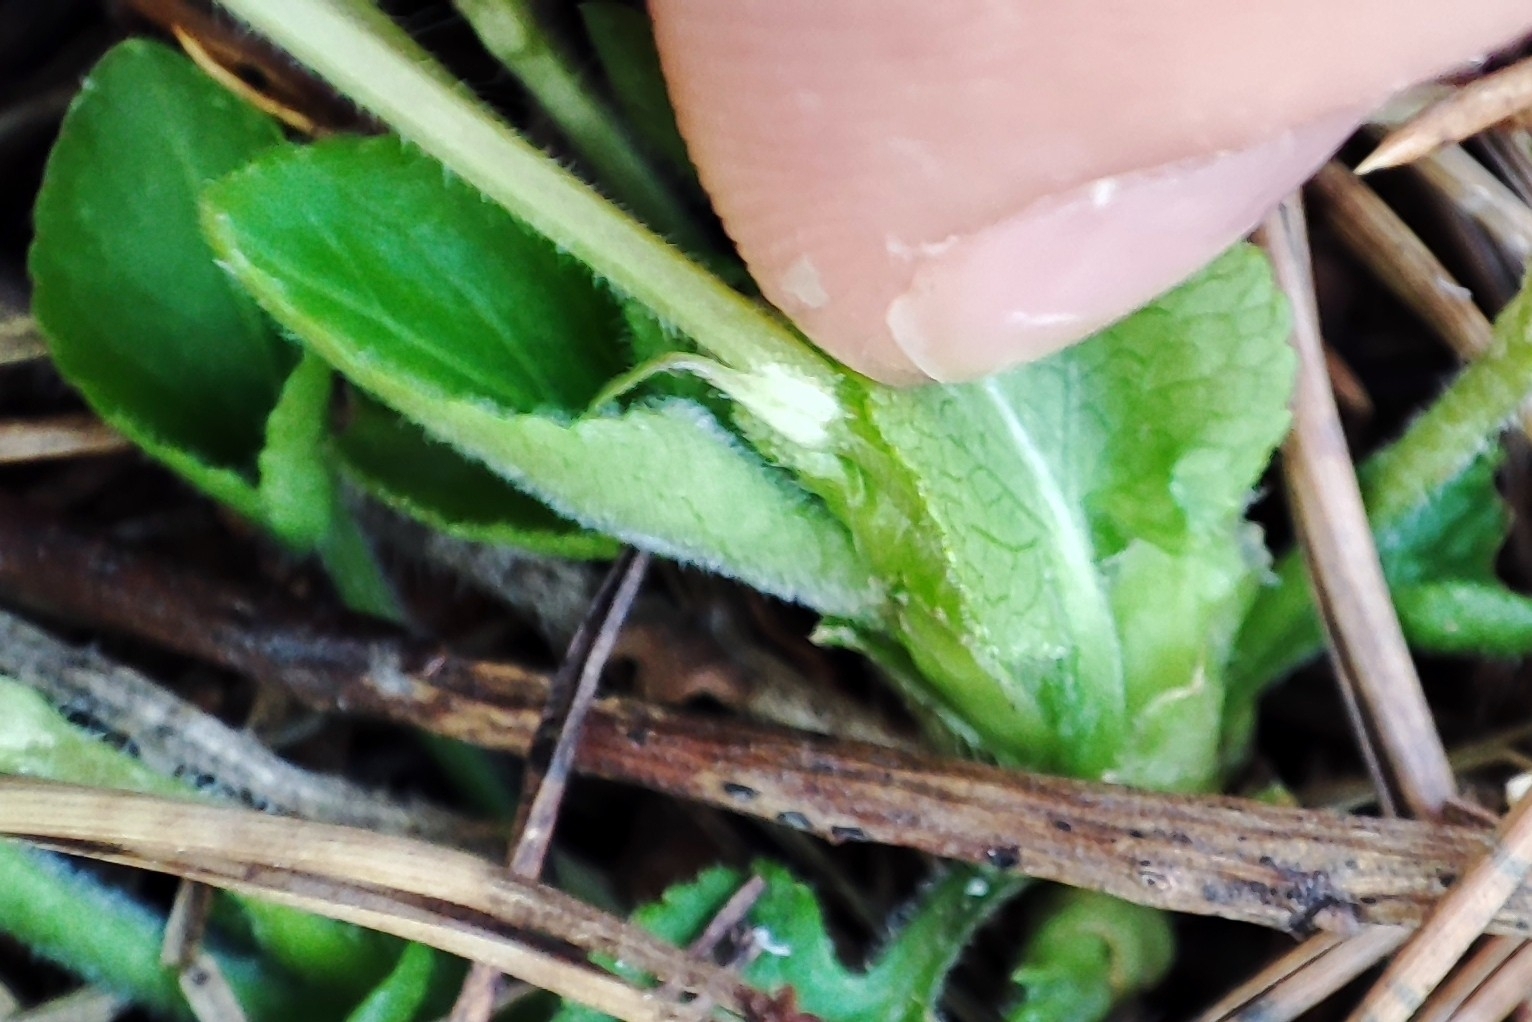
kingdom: Plantae
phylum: Tracheophyta
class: Magnoliopsida
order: Malpighiales
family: Violaceae
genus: Viola
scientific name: Viola hirta
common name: Hairy violet
